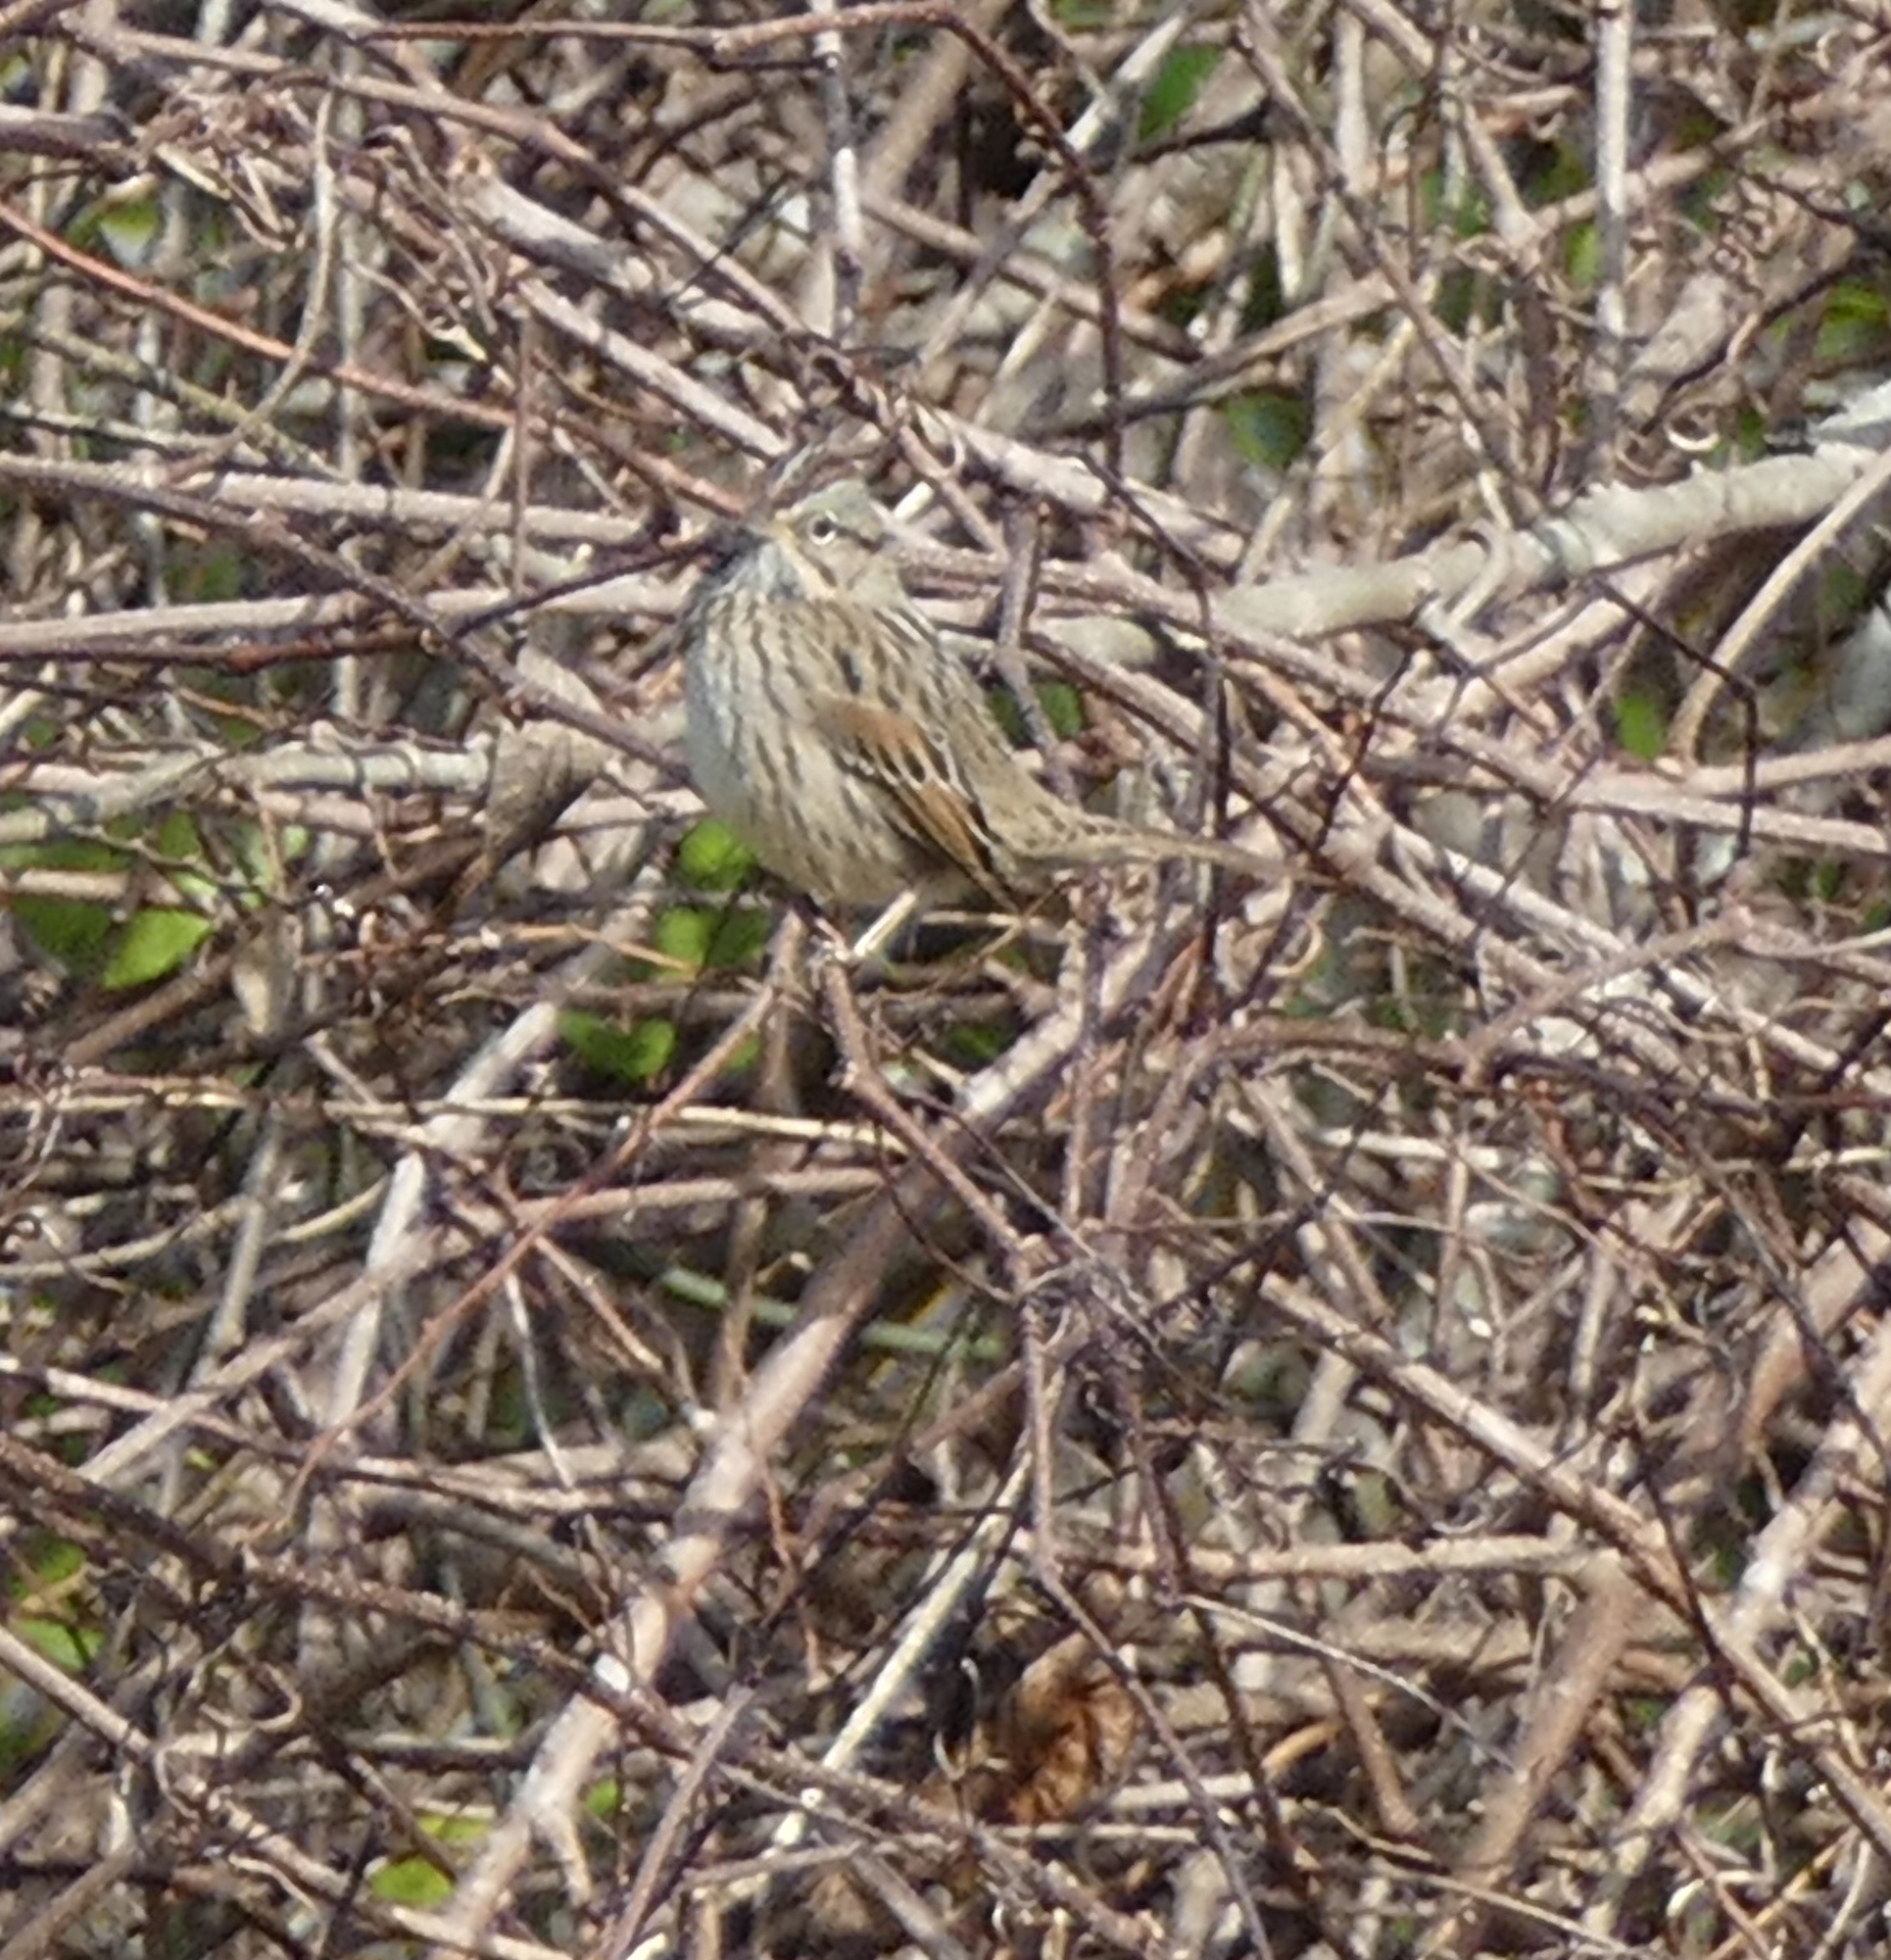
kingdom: Animalia
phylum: Chordata
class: Aves
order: Passeriformes
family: Passerellidae
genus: Melospiza
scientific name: Melospiza lincolnii
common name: Lincoln's sparrow
